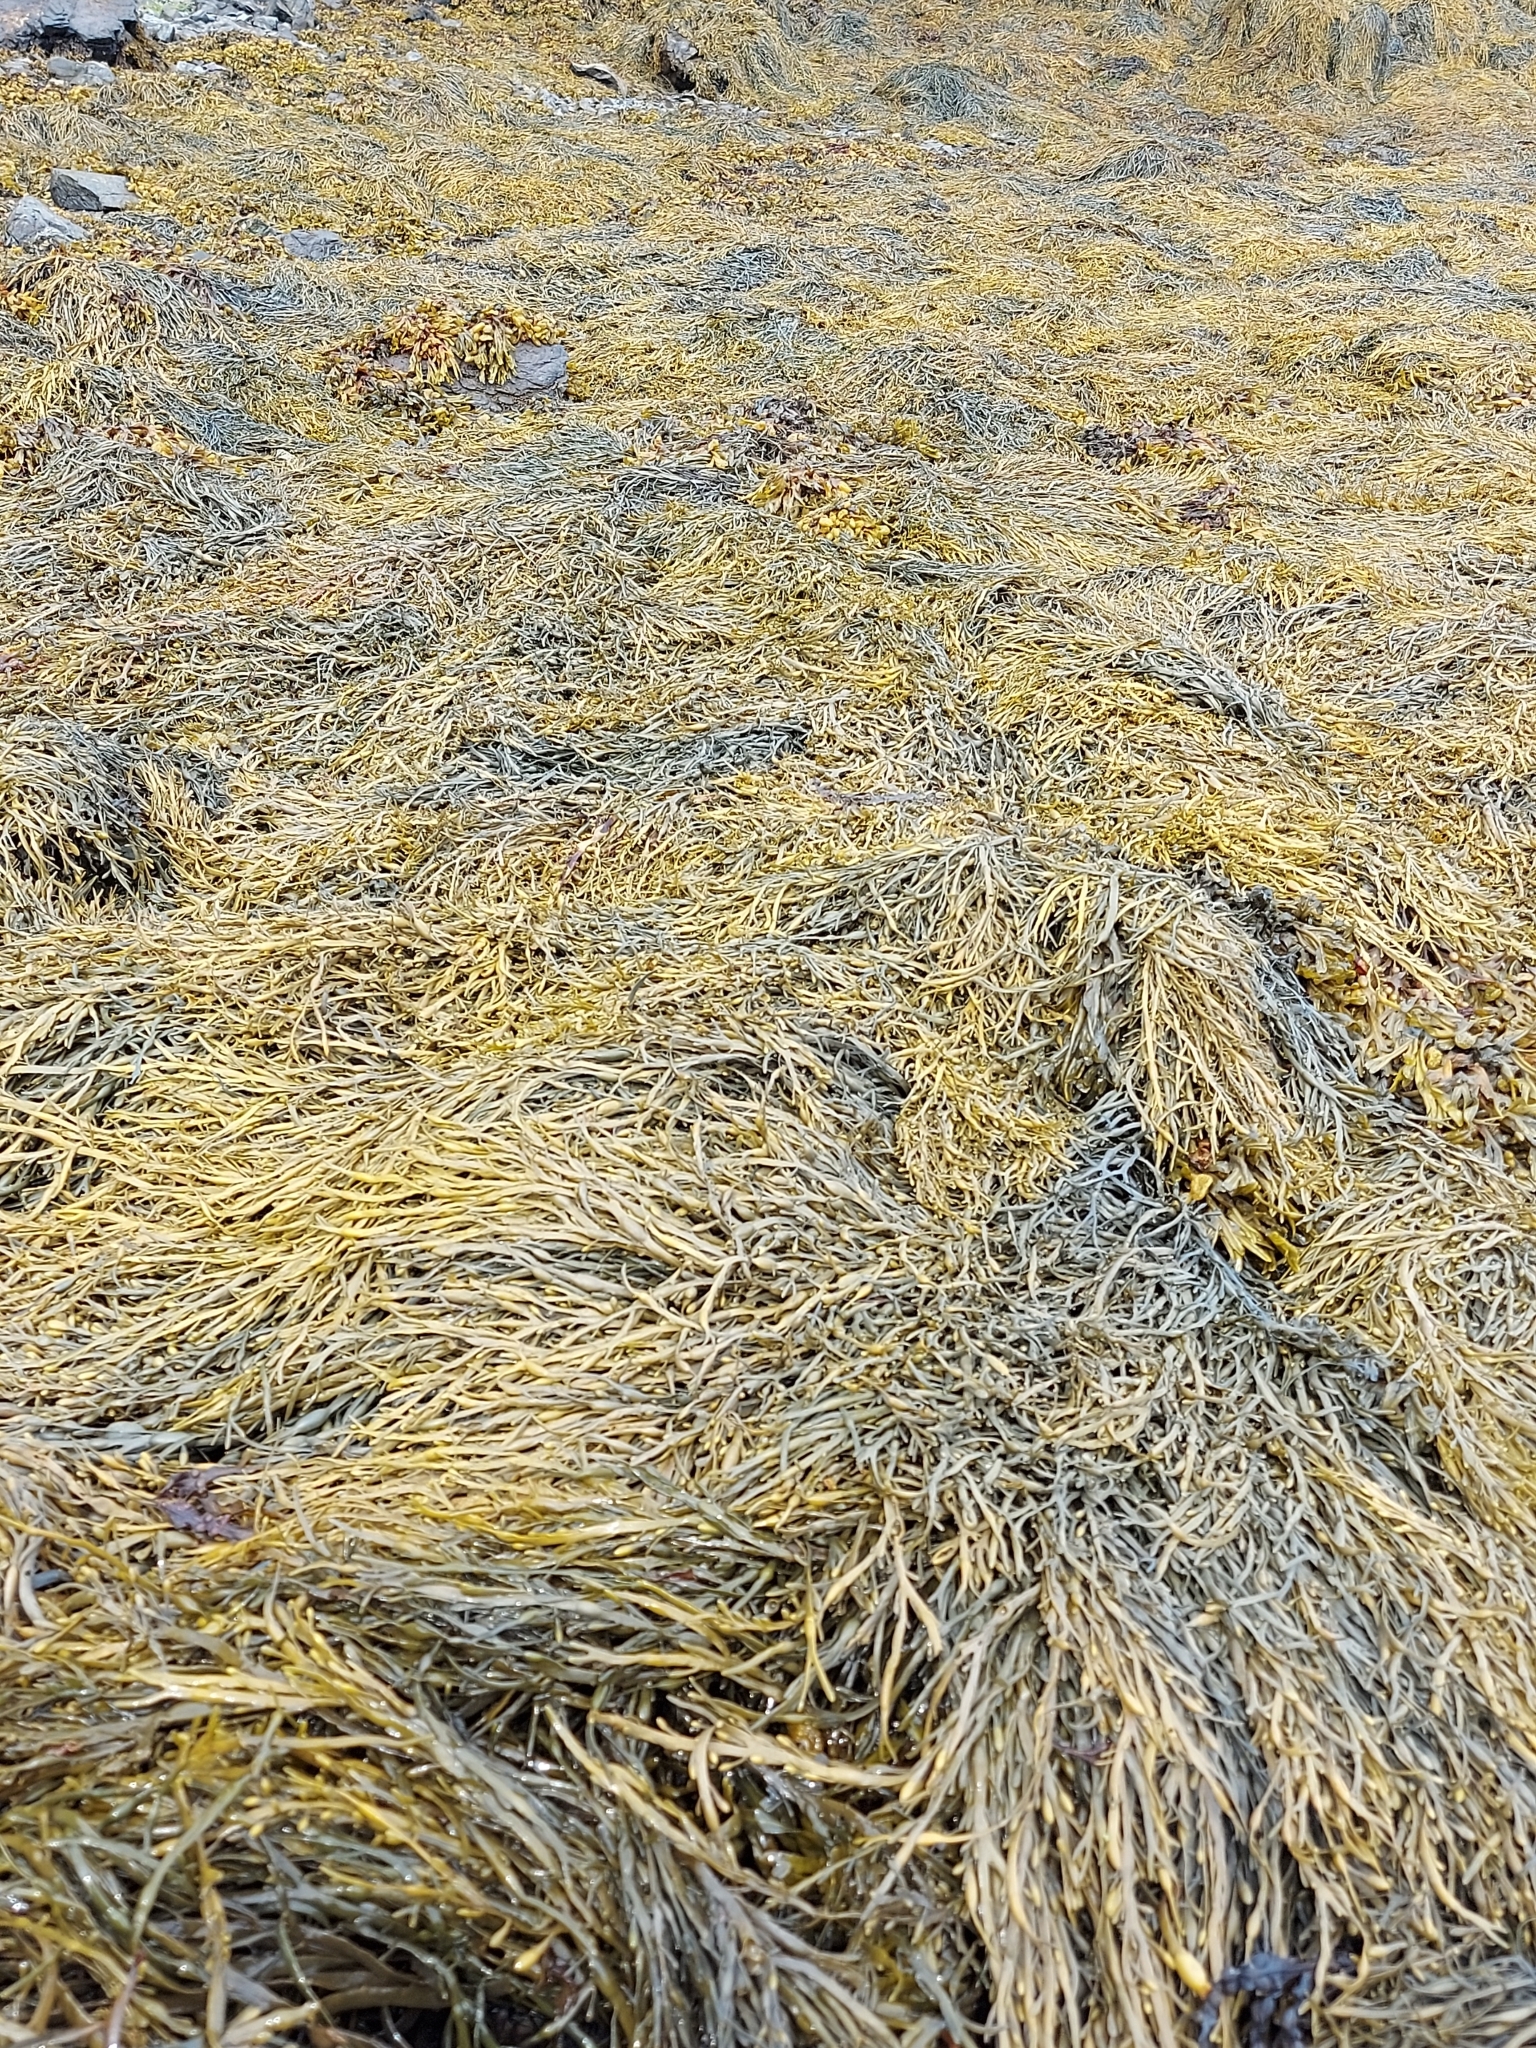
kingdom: Chromista
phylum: Ochrophyta
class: Phaeophyceae
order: Fucales
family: Fucaceae
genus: Ascophyllum
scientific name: Ascophyllum nodosum
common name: Knotted wrack
